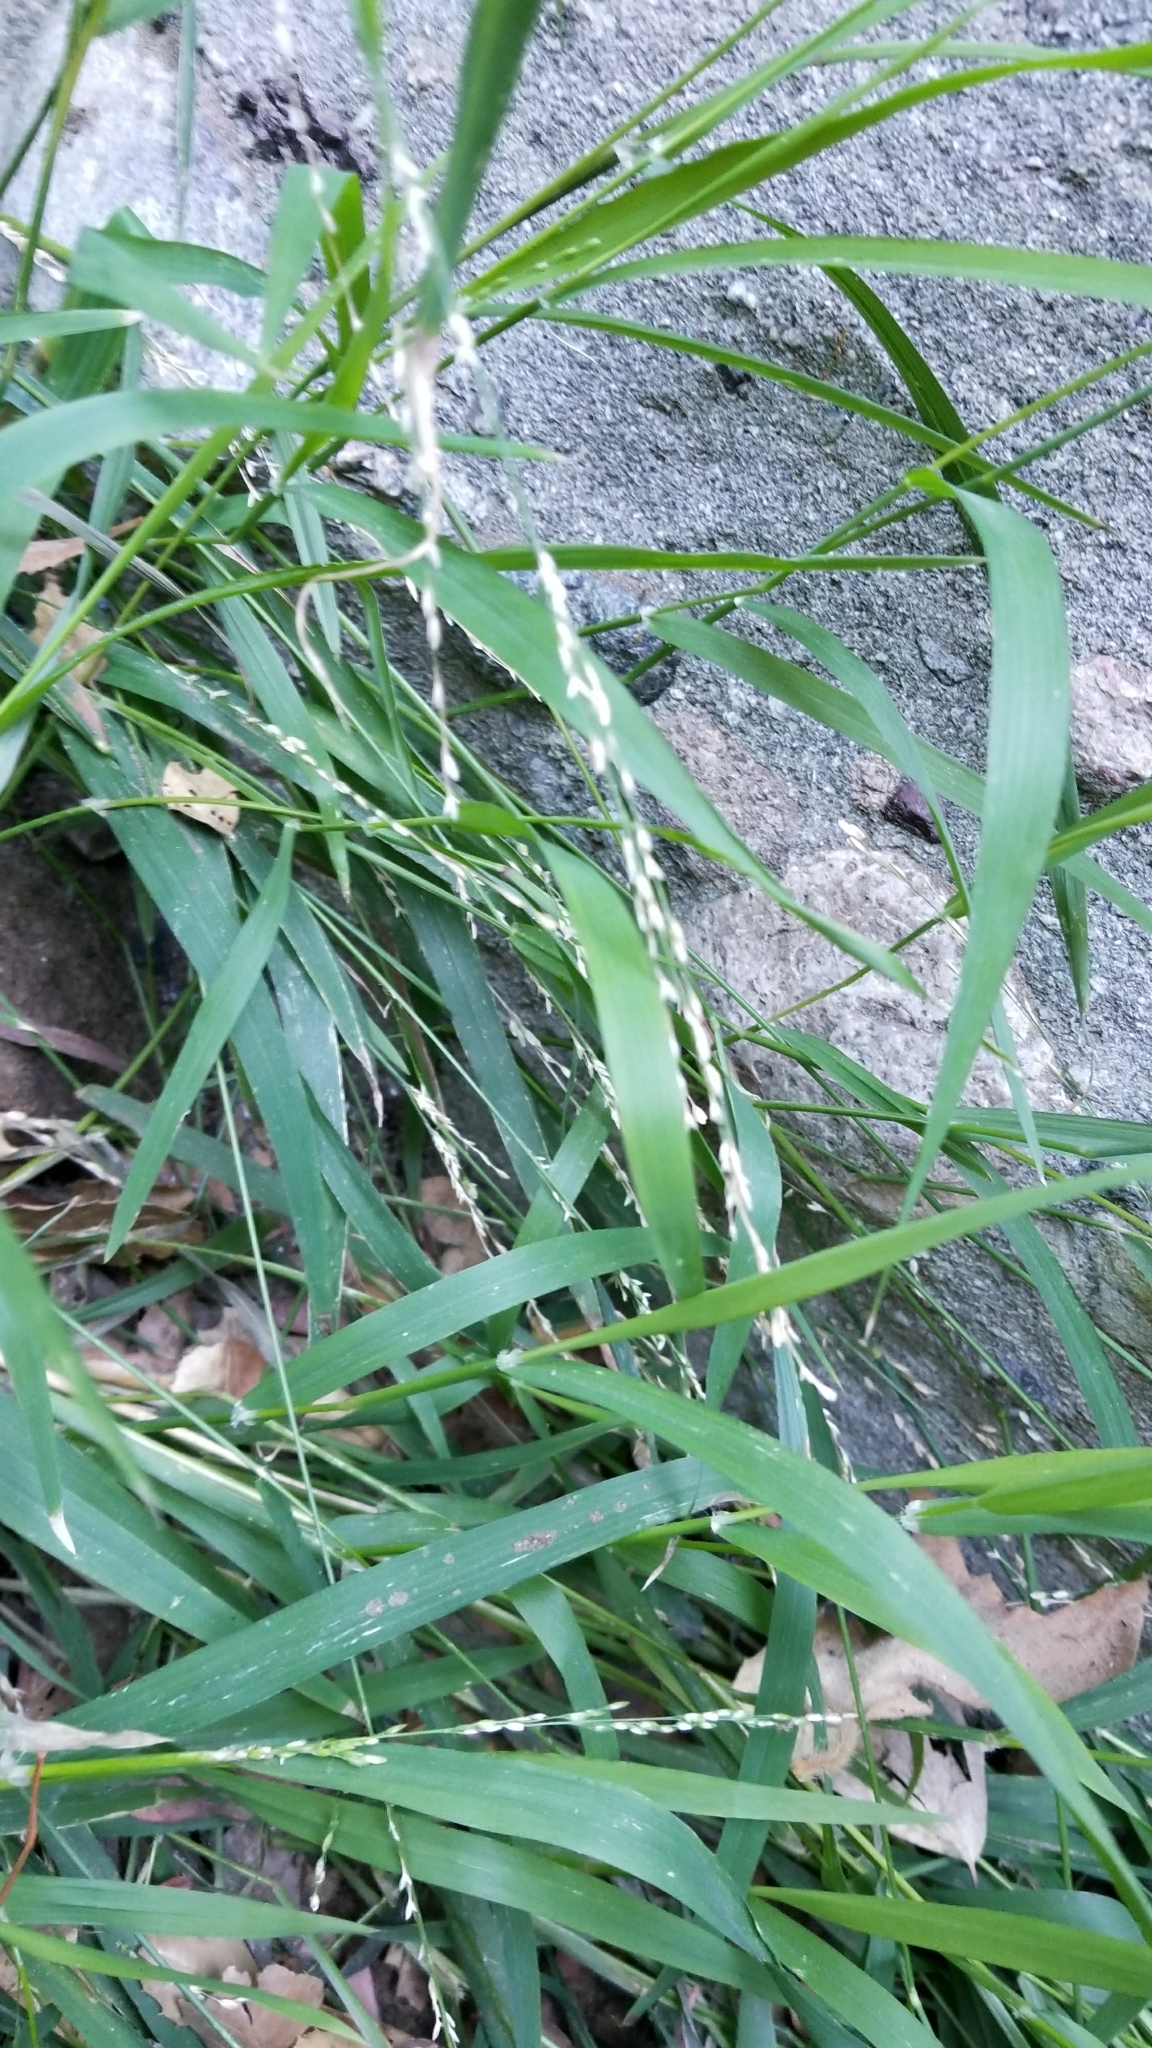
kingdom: Plantae
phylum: Tracheophyta
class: Liliopsida
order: Poales
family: Poaceae
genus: Ehrharta
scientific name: Ehrharta erecta
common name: Panic veldtgrass
